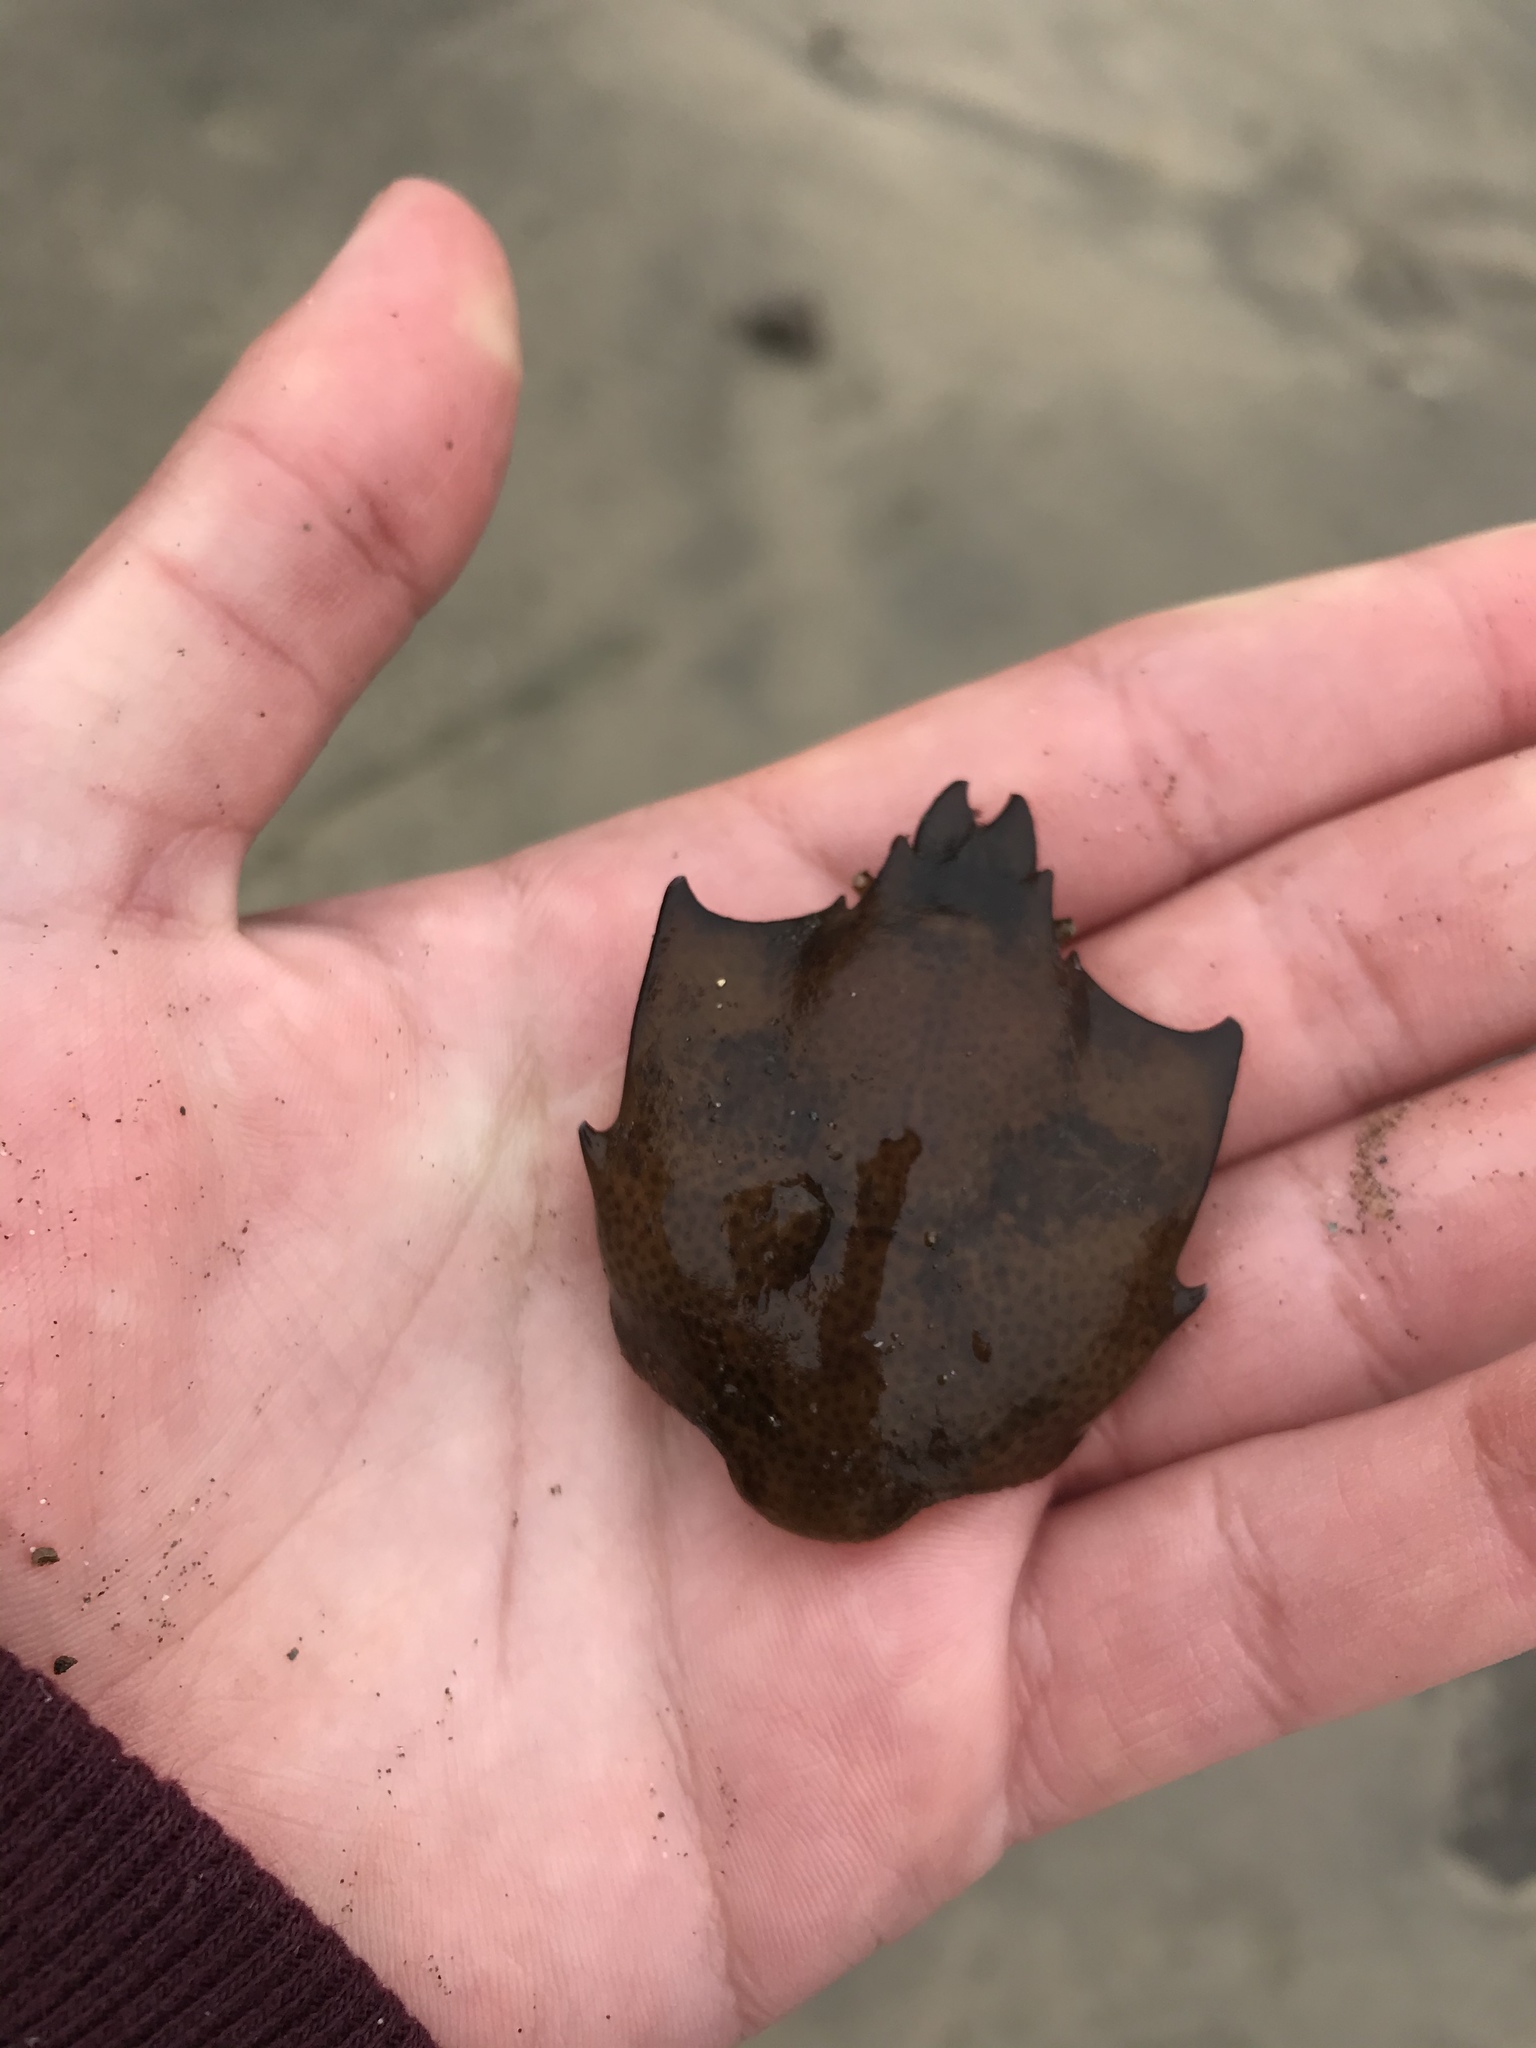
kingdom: Animalia
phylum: Arthropoda
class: Malacostraca
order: Decapoda
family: Epialtidae
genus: Pugettia
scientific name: Pugettia producta
